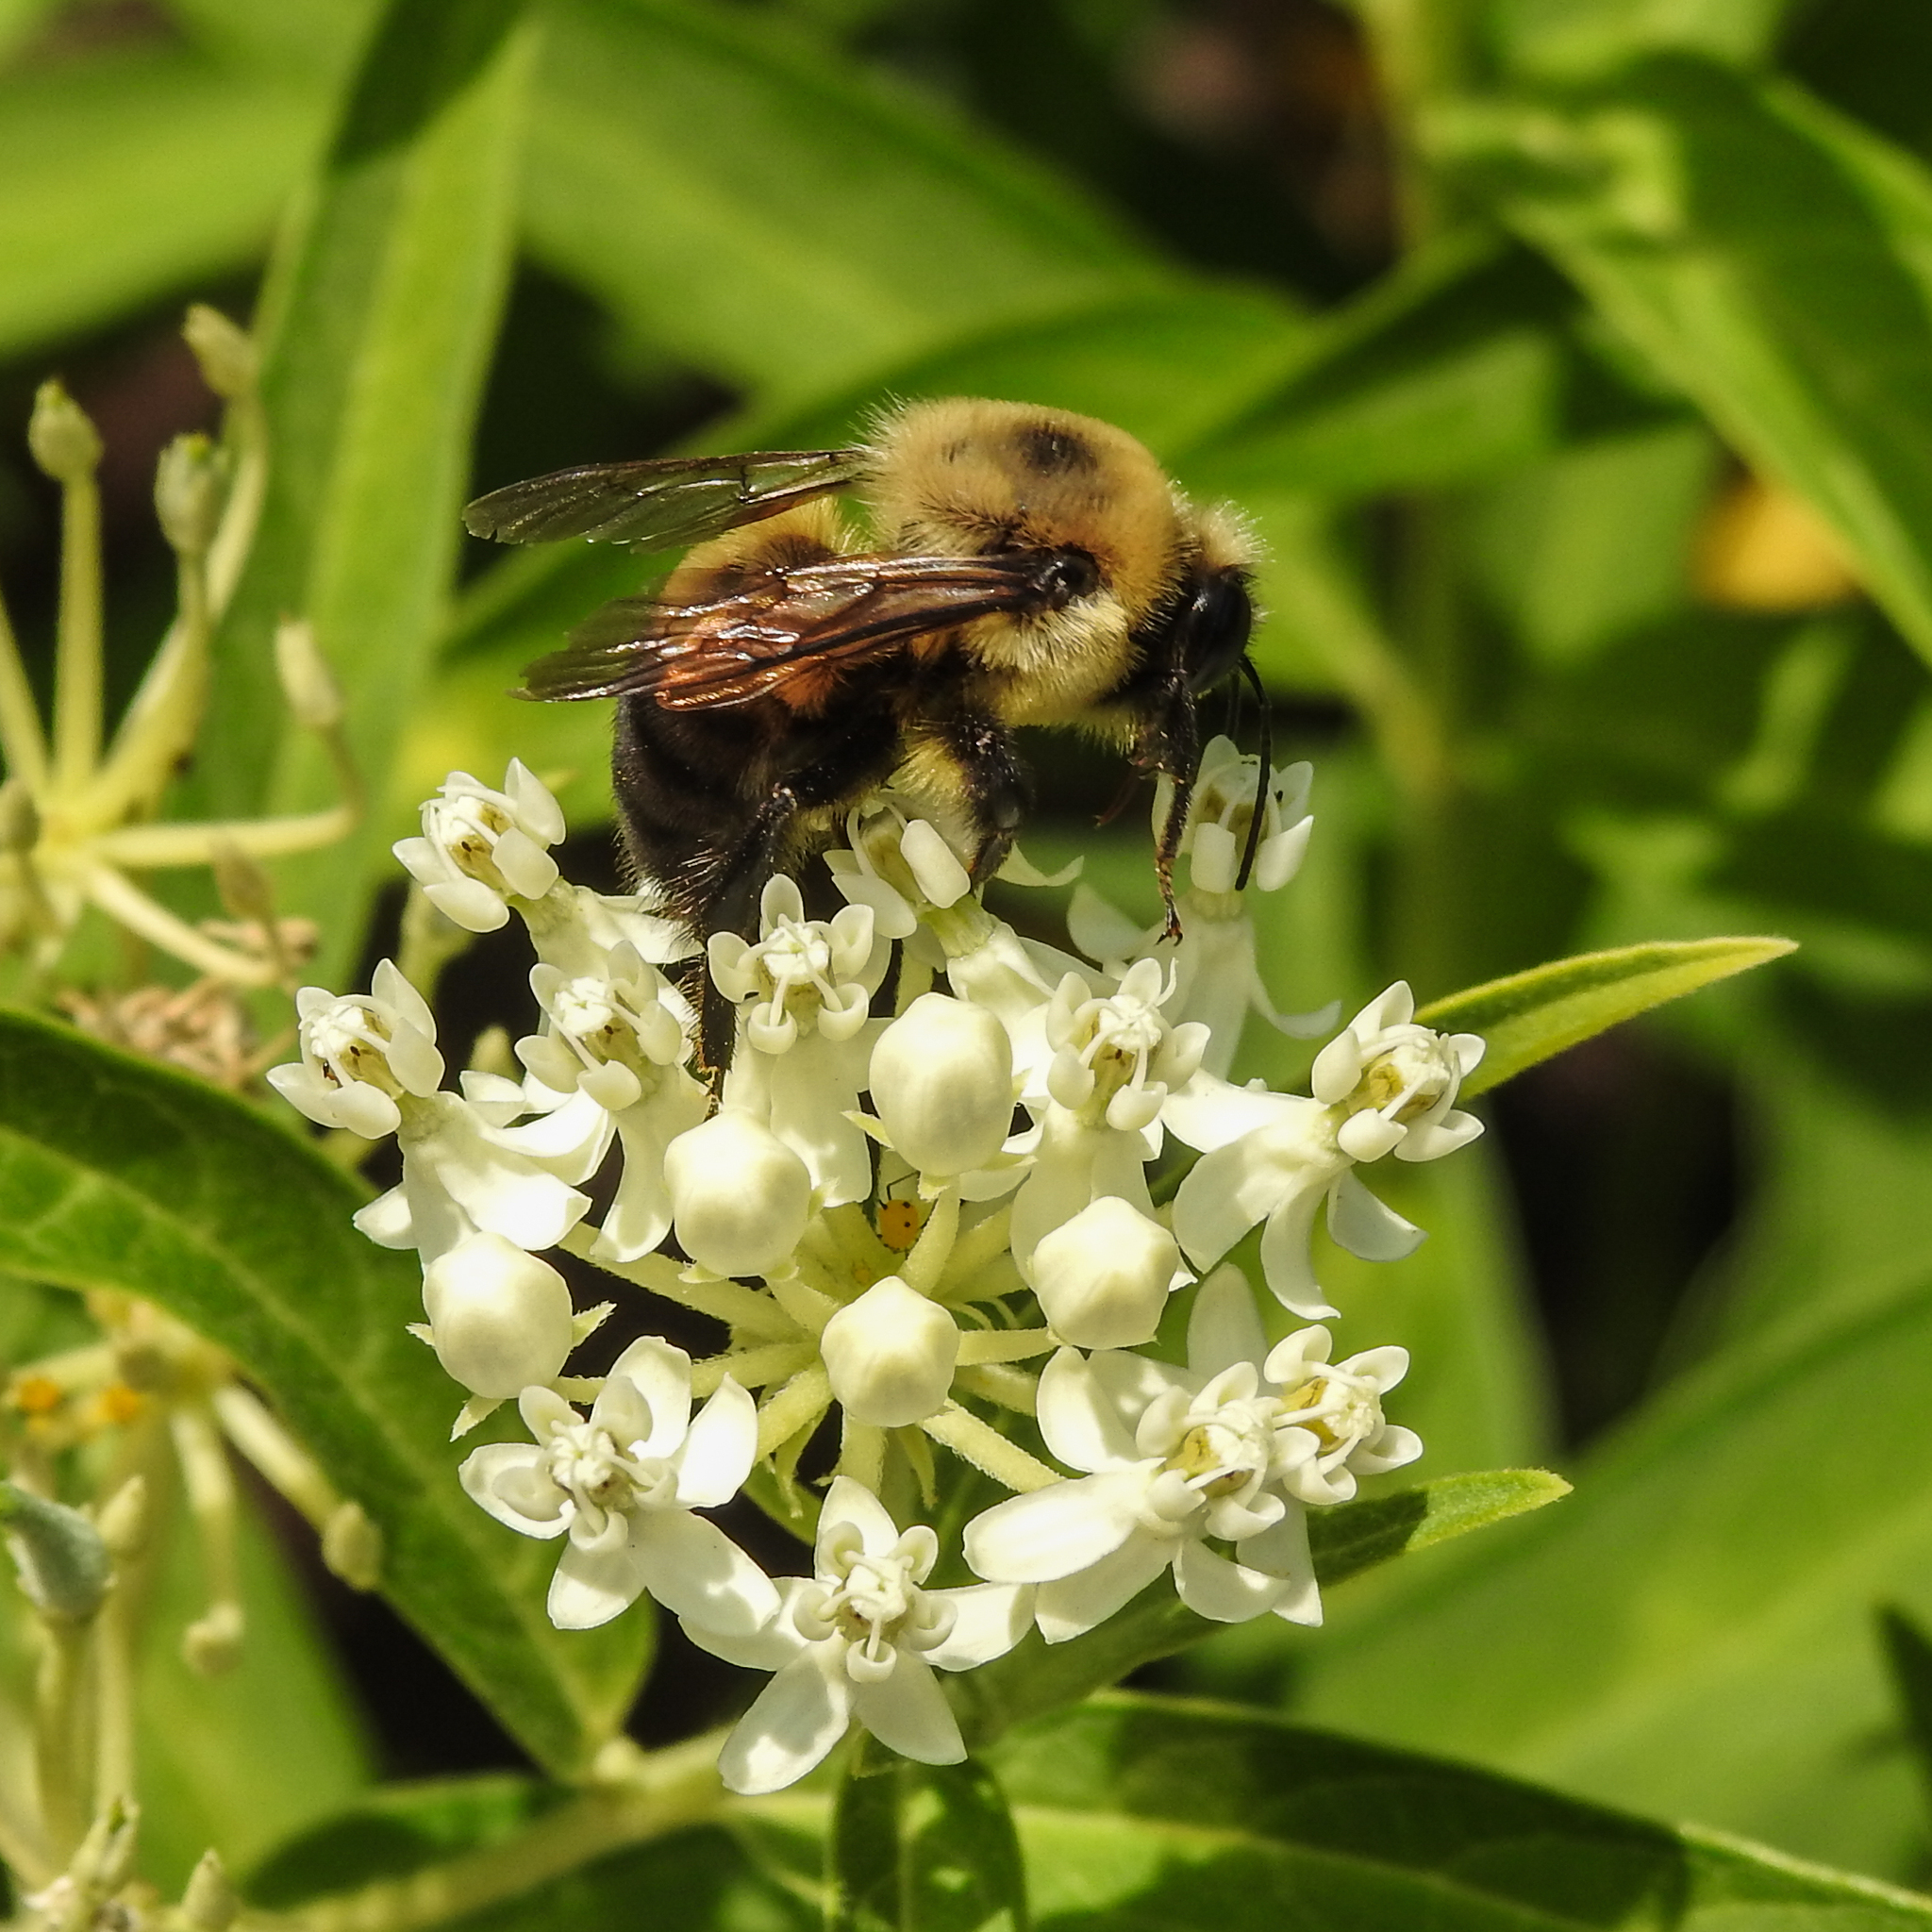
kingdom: Animalia
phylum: Arthropoda
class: Insecta
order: Hymenoptera
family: Apidae
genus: Bombus
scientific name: Bombus griseocollis
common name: Brown-belted bumble bee
